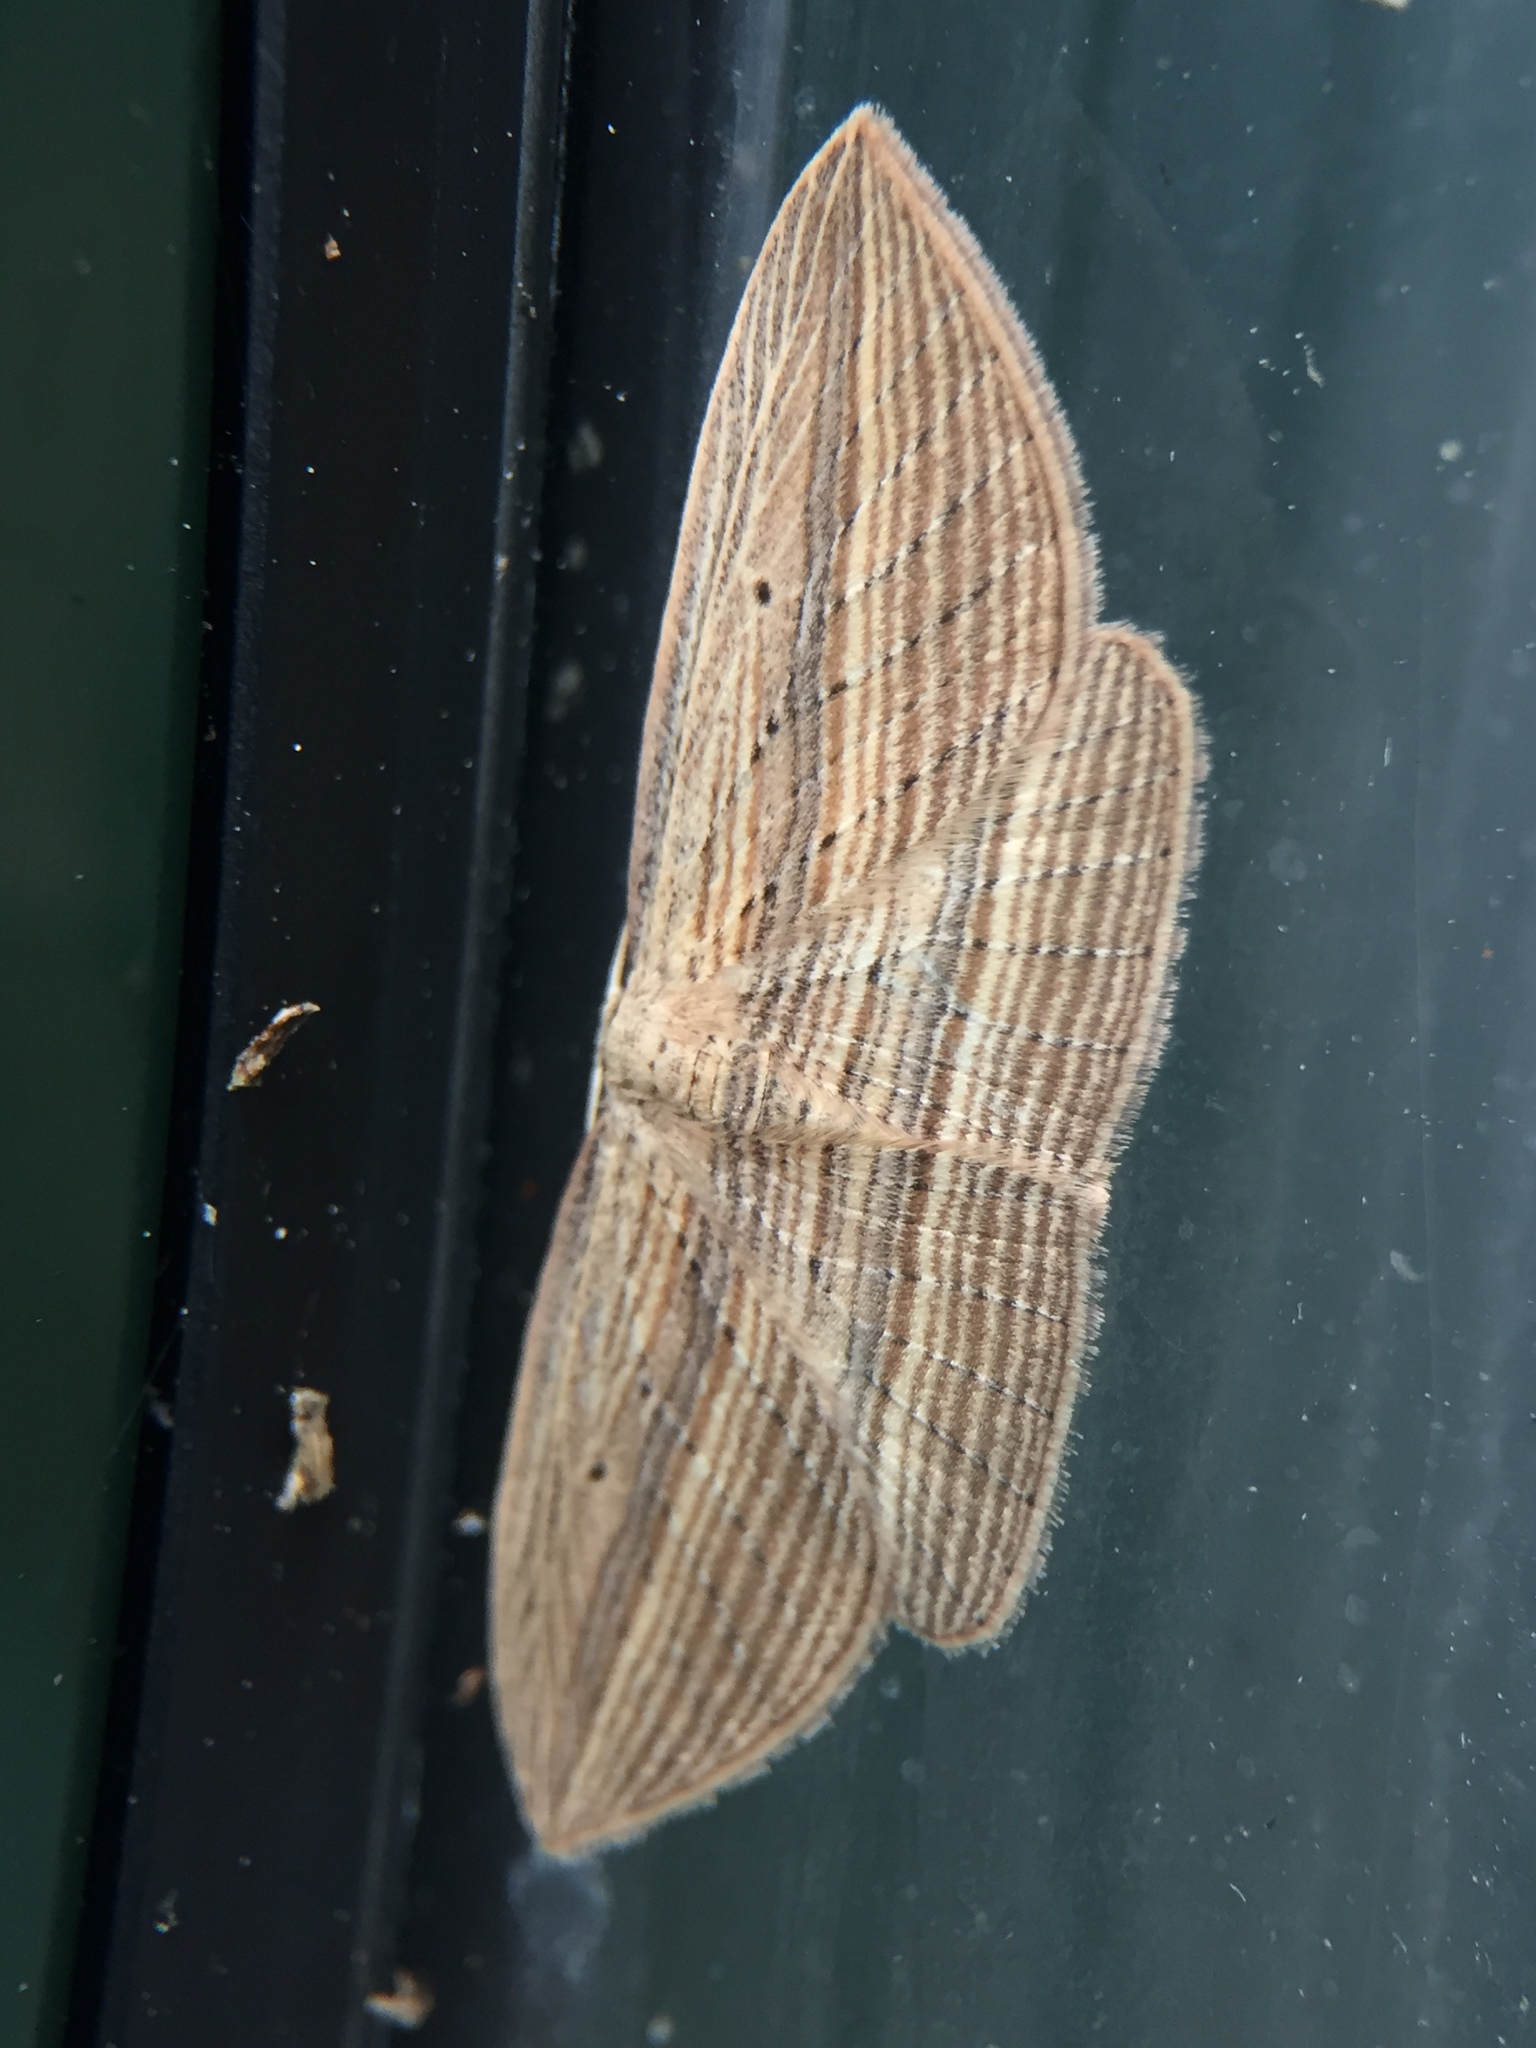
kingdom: Animalia
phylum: Arthropoda
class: Insecta
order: Lepidoptera
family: Geometridae
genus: Epiphryne
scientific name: Epiphryne verriculata
